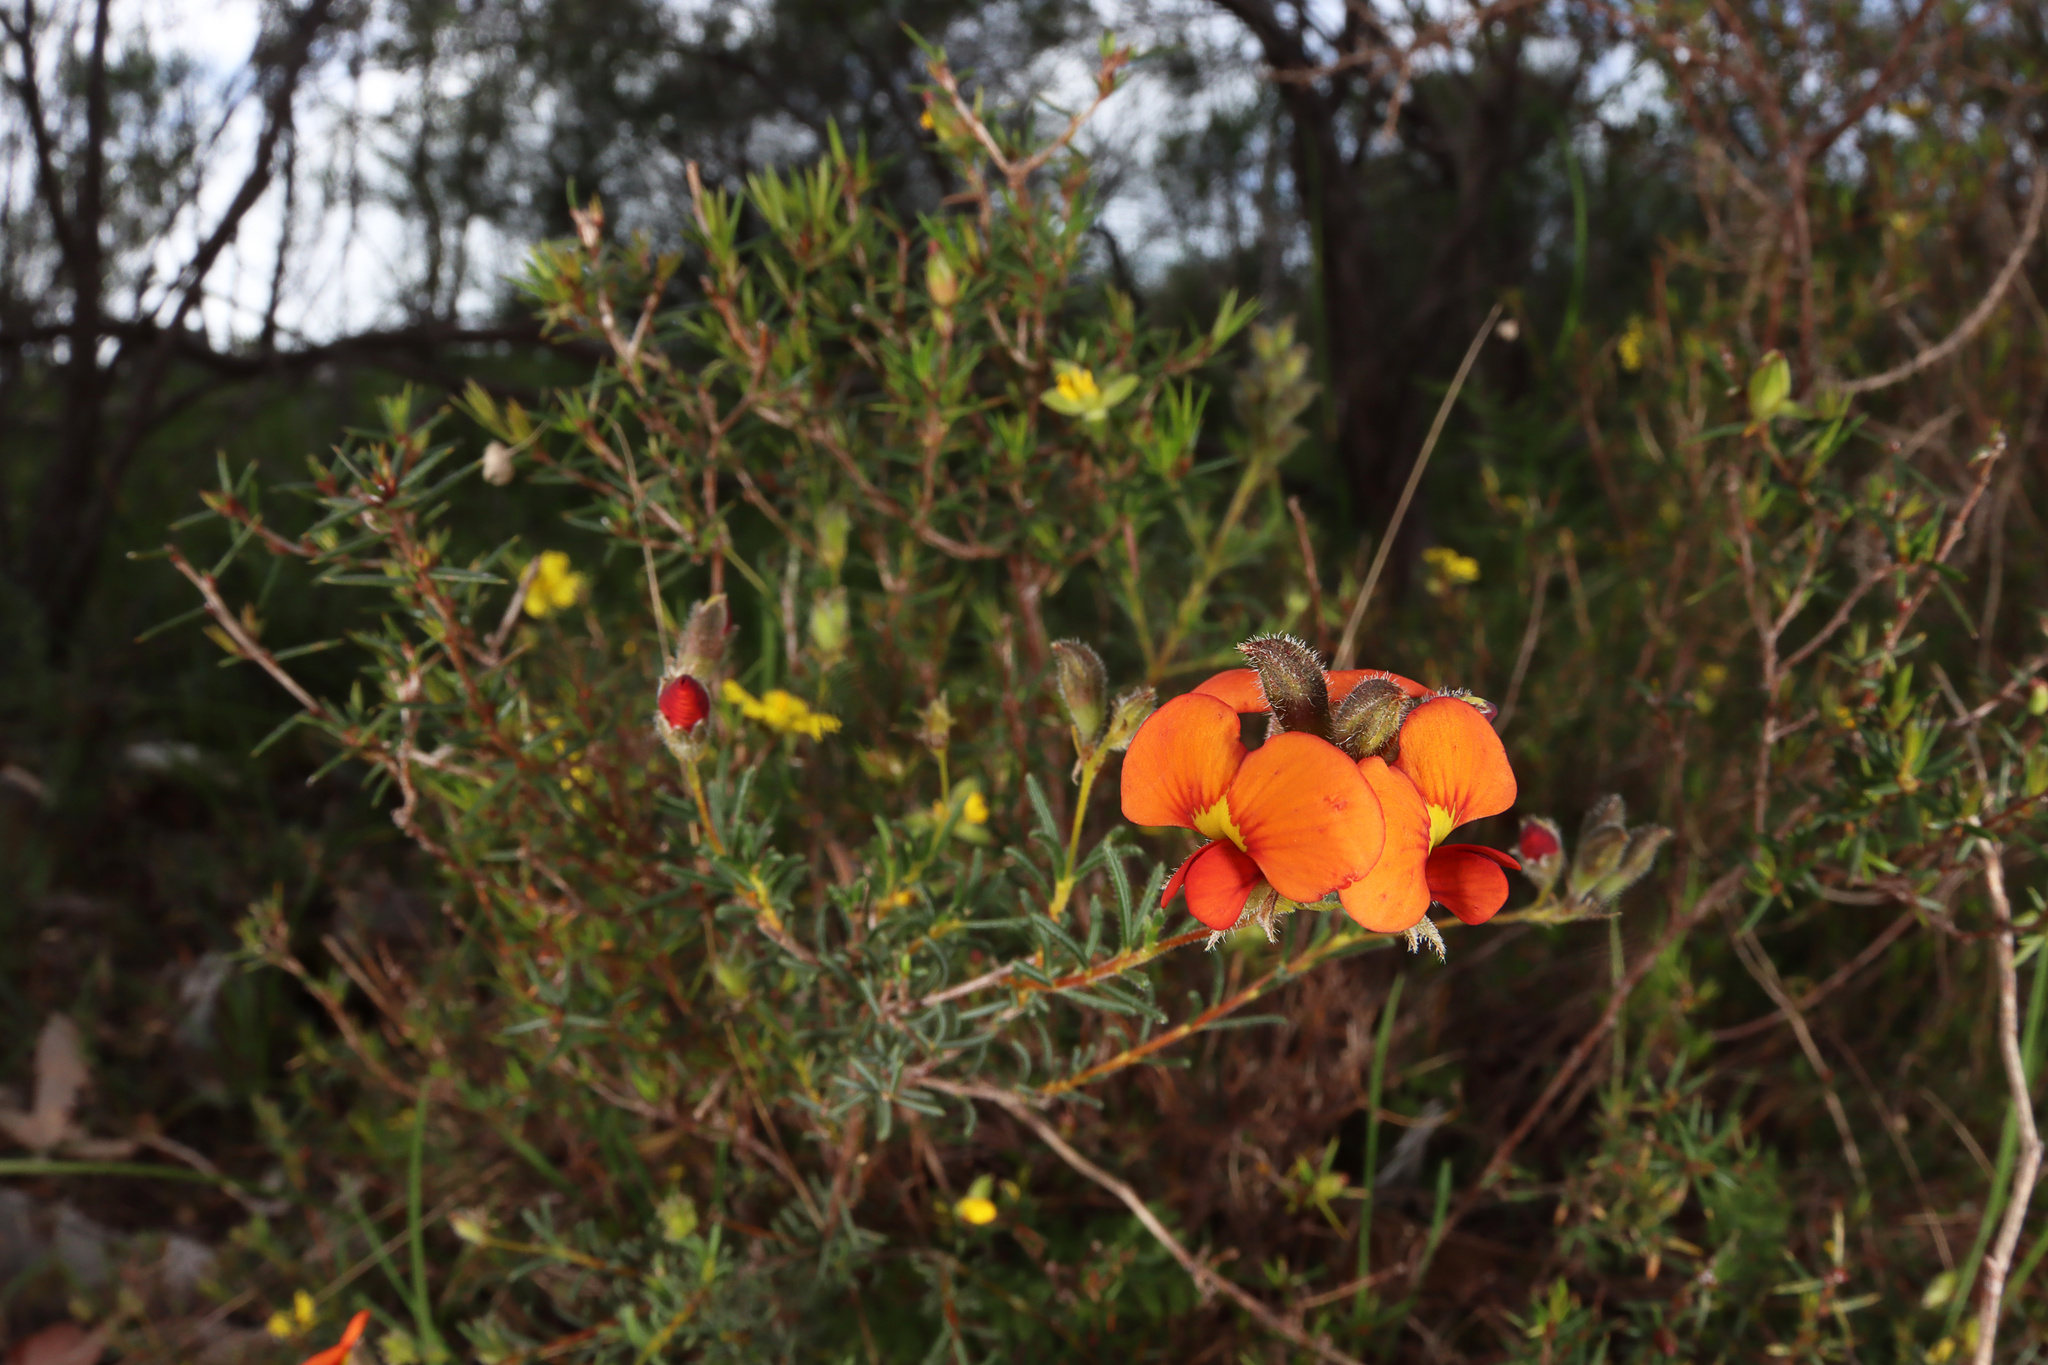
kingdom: Plantae
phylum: Tracheophyta
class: Magnoliopsida
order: Fabales
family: Fabaceae
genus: Dillwynia
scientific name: Dillwynia hispida
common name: Red parrot-pea
